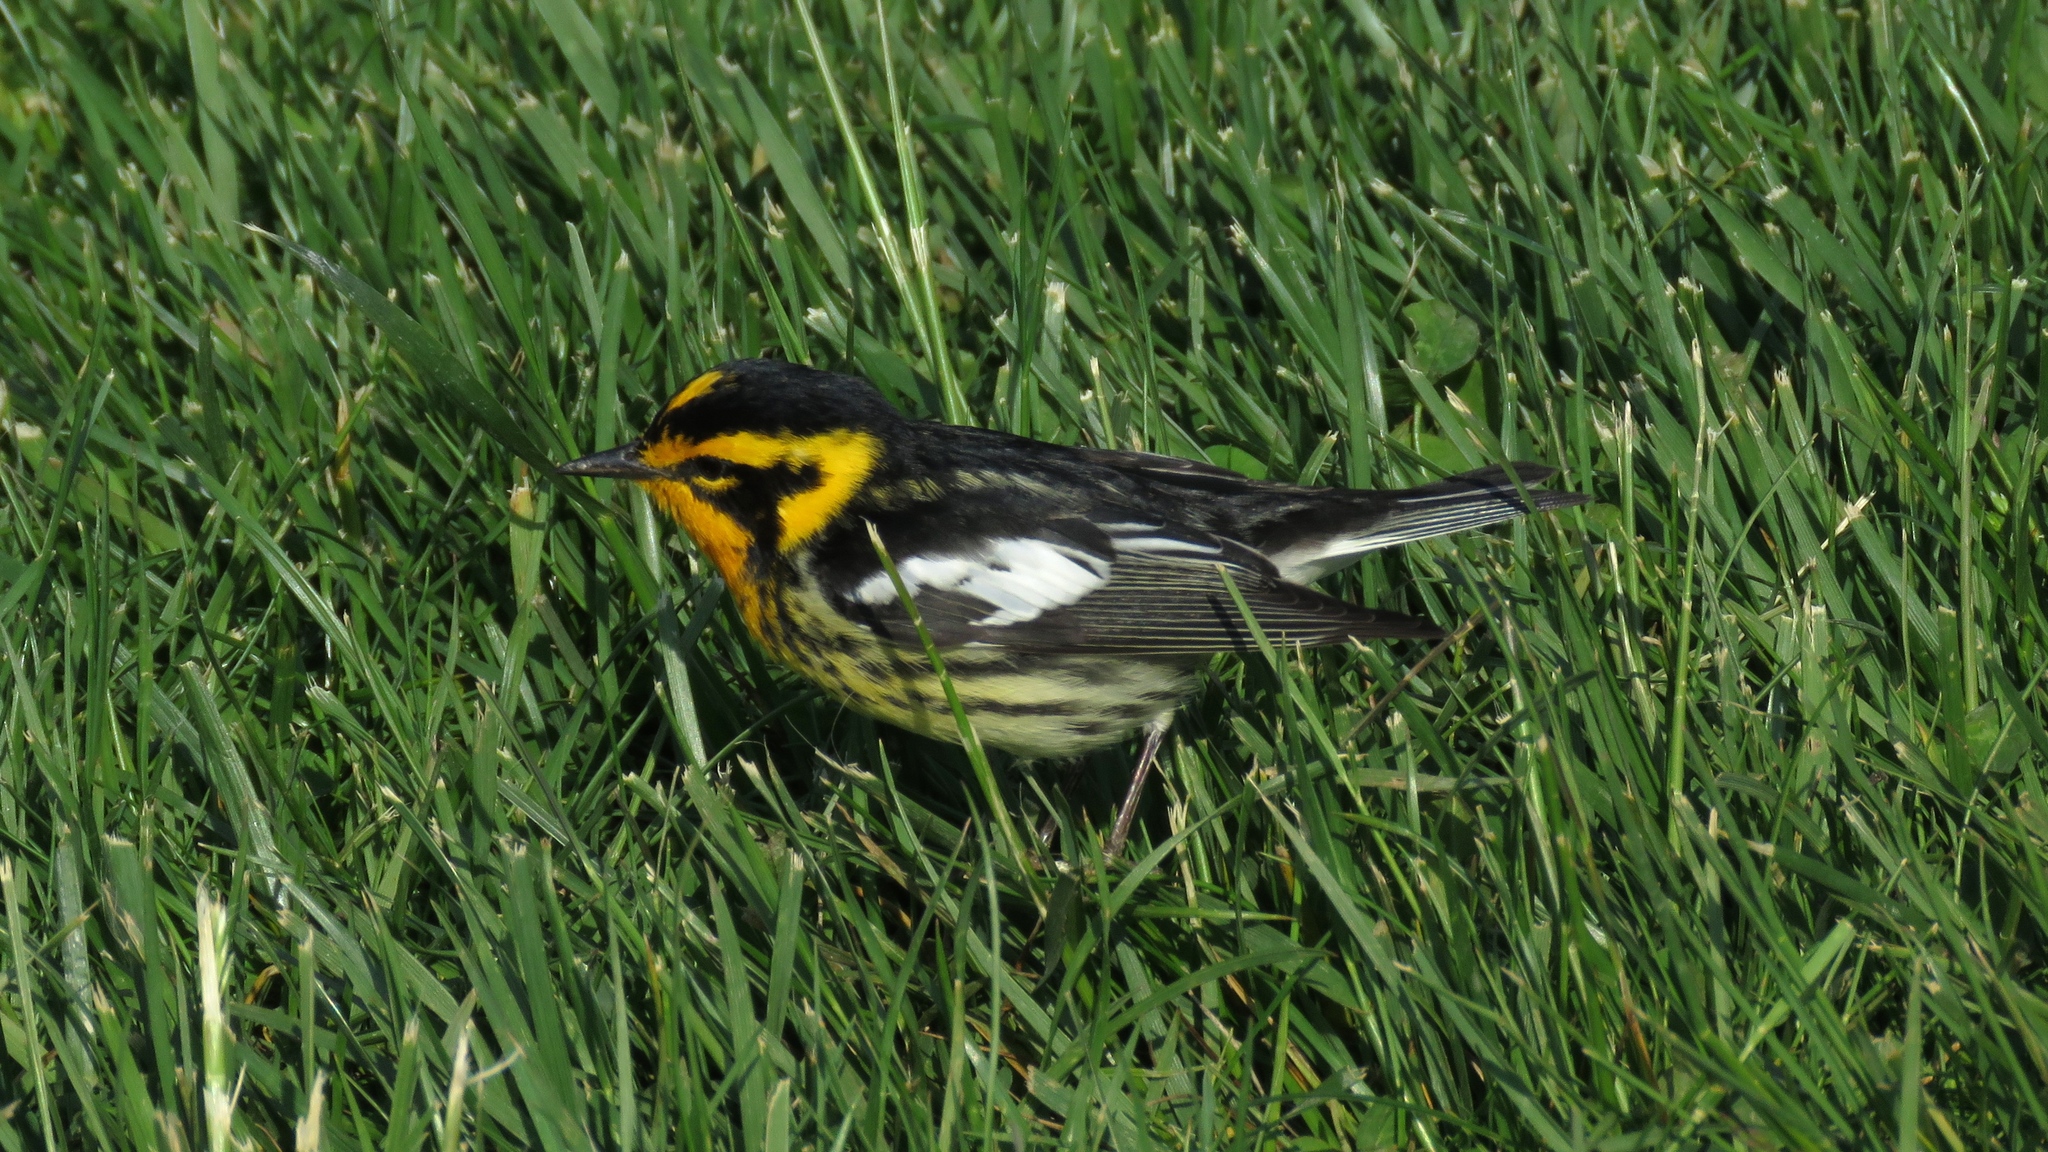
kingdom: Animalia
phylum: Chordata
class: Aves
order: Passeriformes
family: Parulidae
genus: Setophaga
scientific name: Setophaga fusca
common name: Blackburnian warbler
